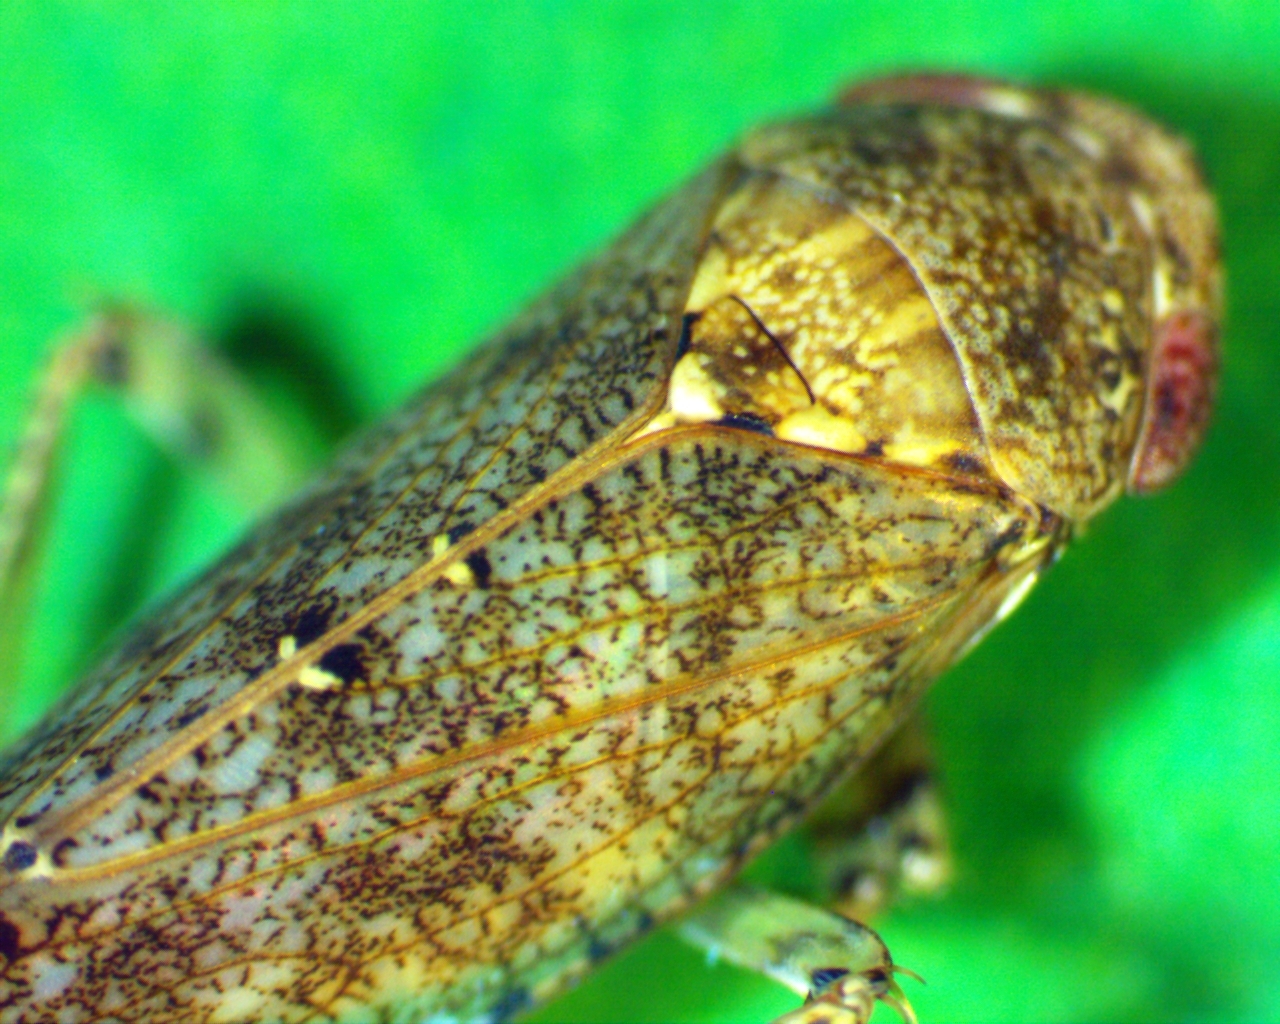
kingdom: Animalia
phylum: Arthropoda
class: Insecta
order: Hemiptera
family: Cicadellidae
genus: Paraphlepsius
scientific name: Paraphlepsius tennessus
